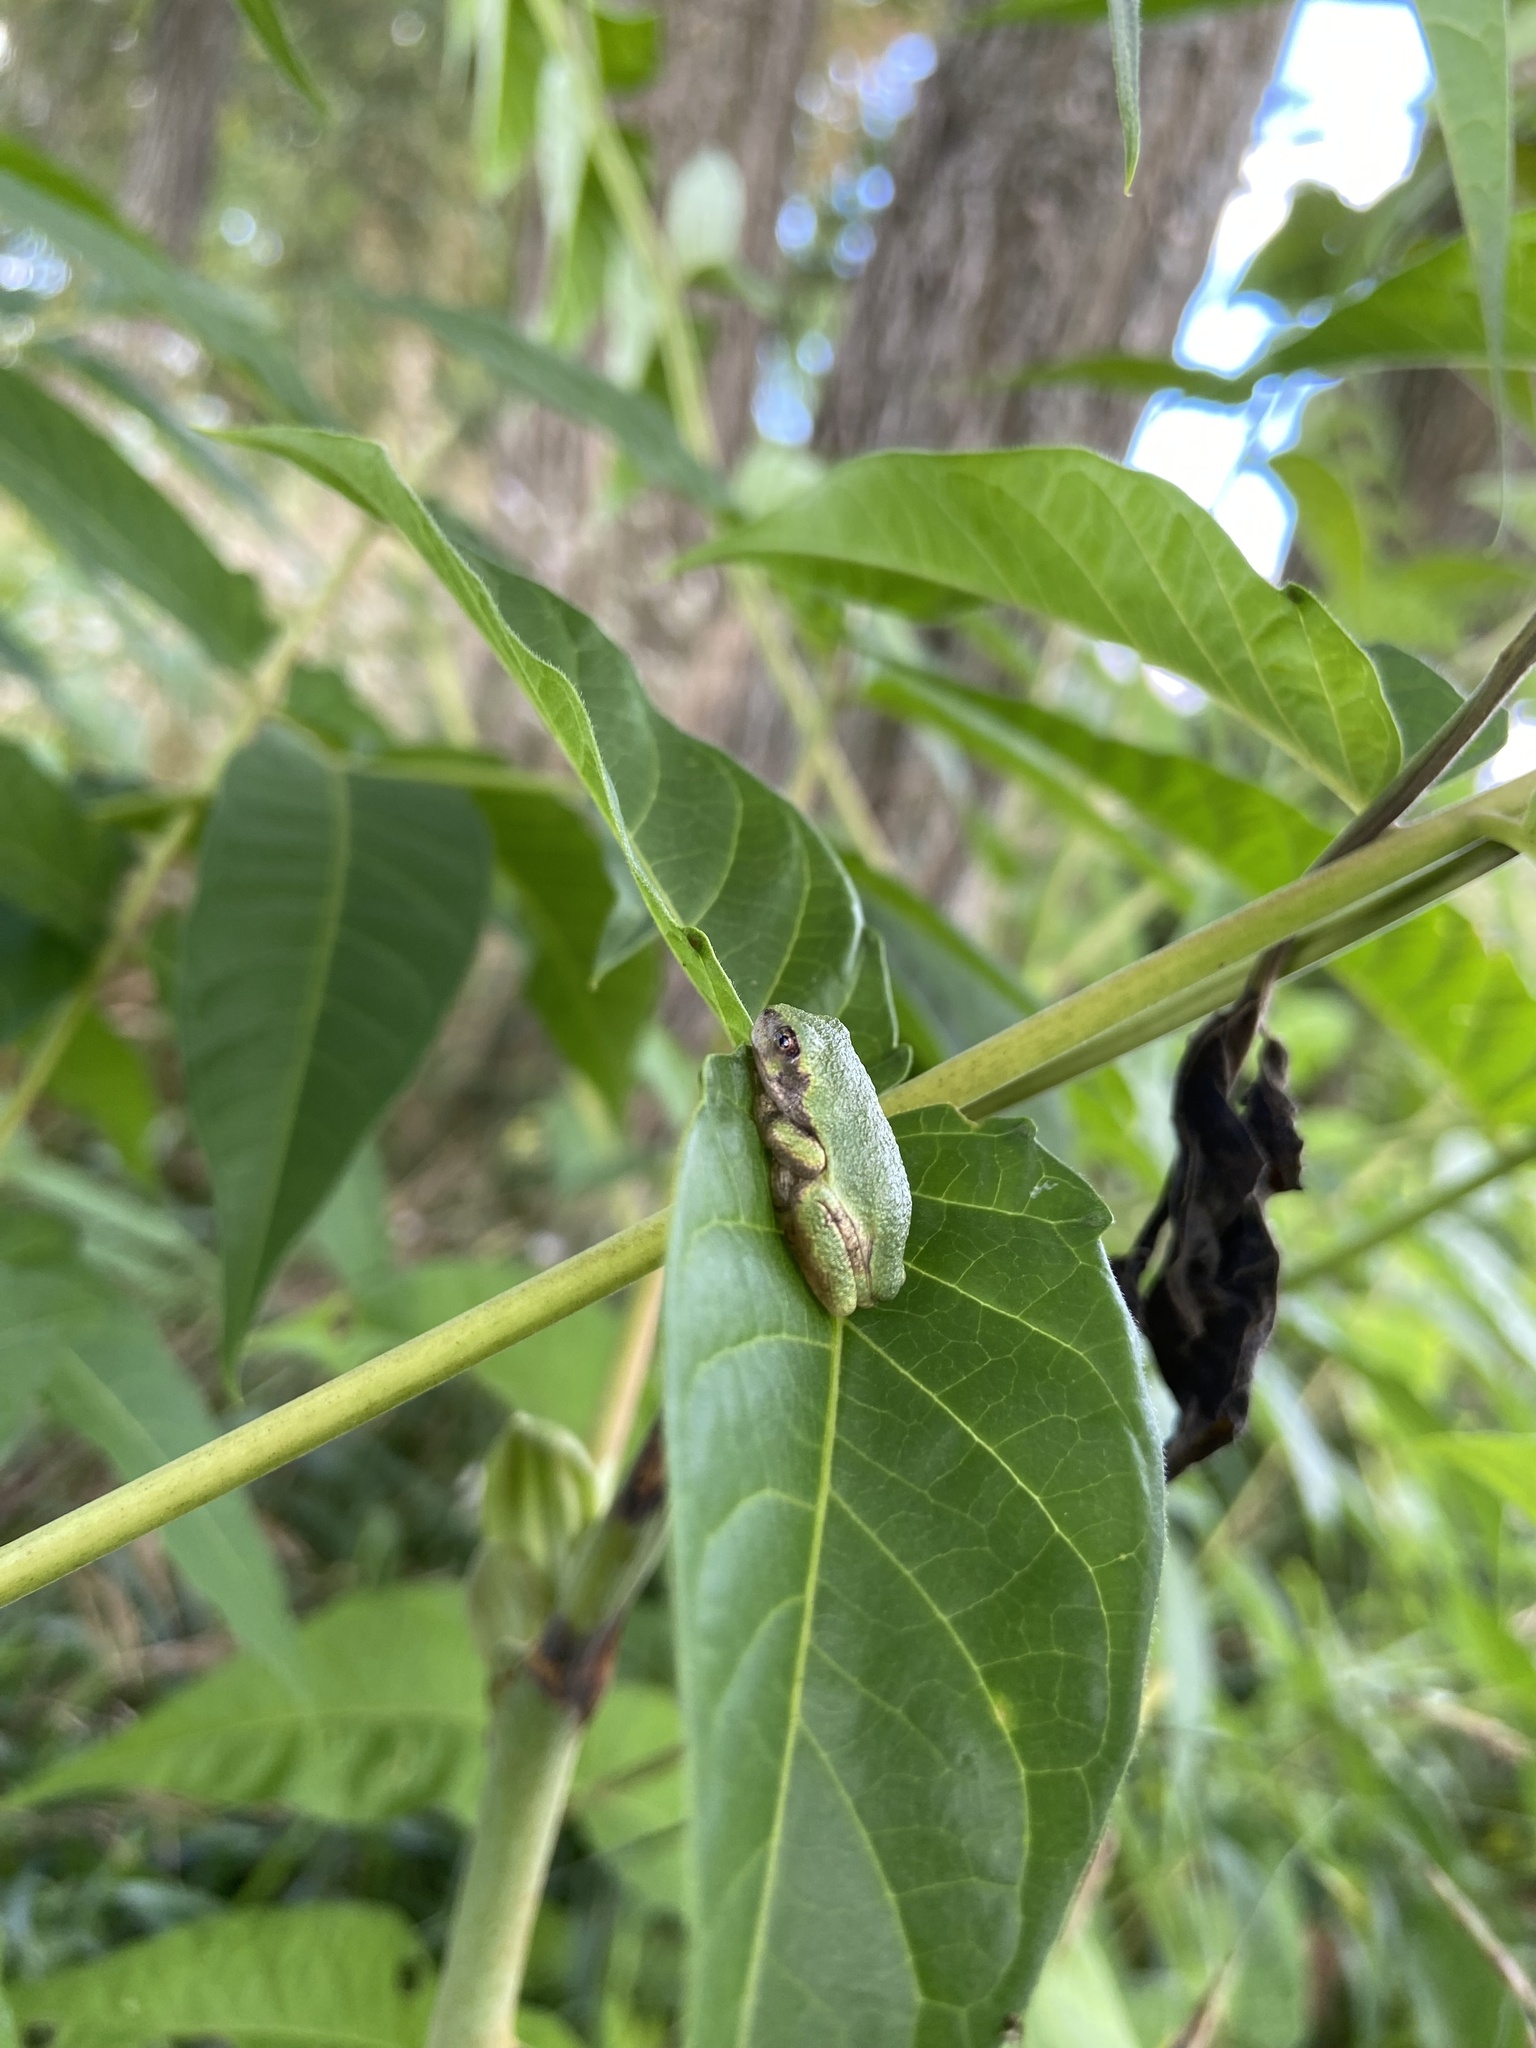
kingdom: Animalia
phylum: Chordata
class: Amphibia
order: Anura
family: Hylidae
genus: Dryophytes
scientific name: Dryophytes versicolor
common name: Gray treefrog
